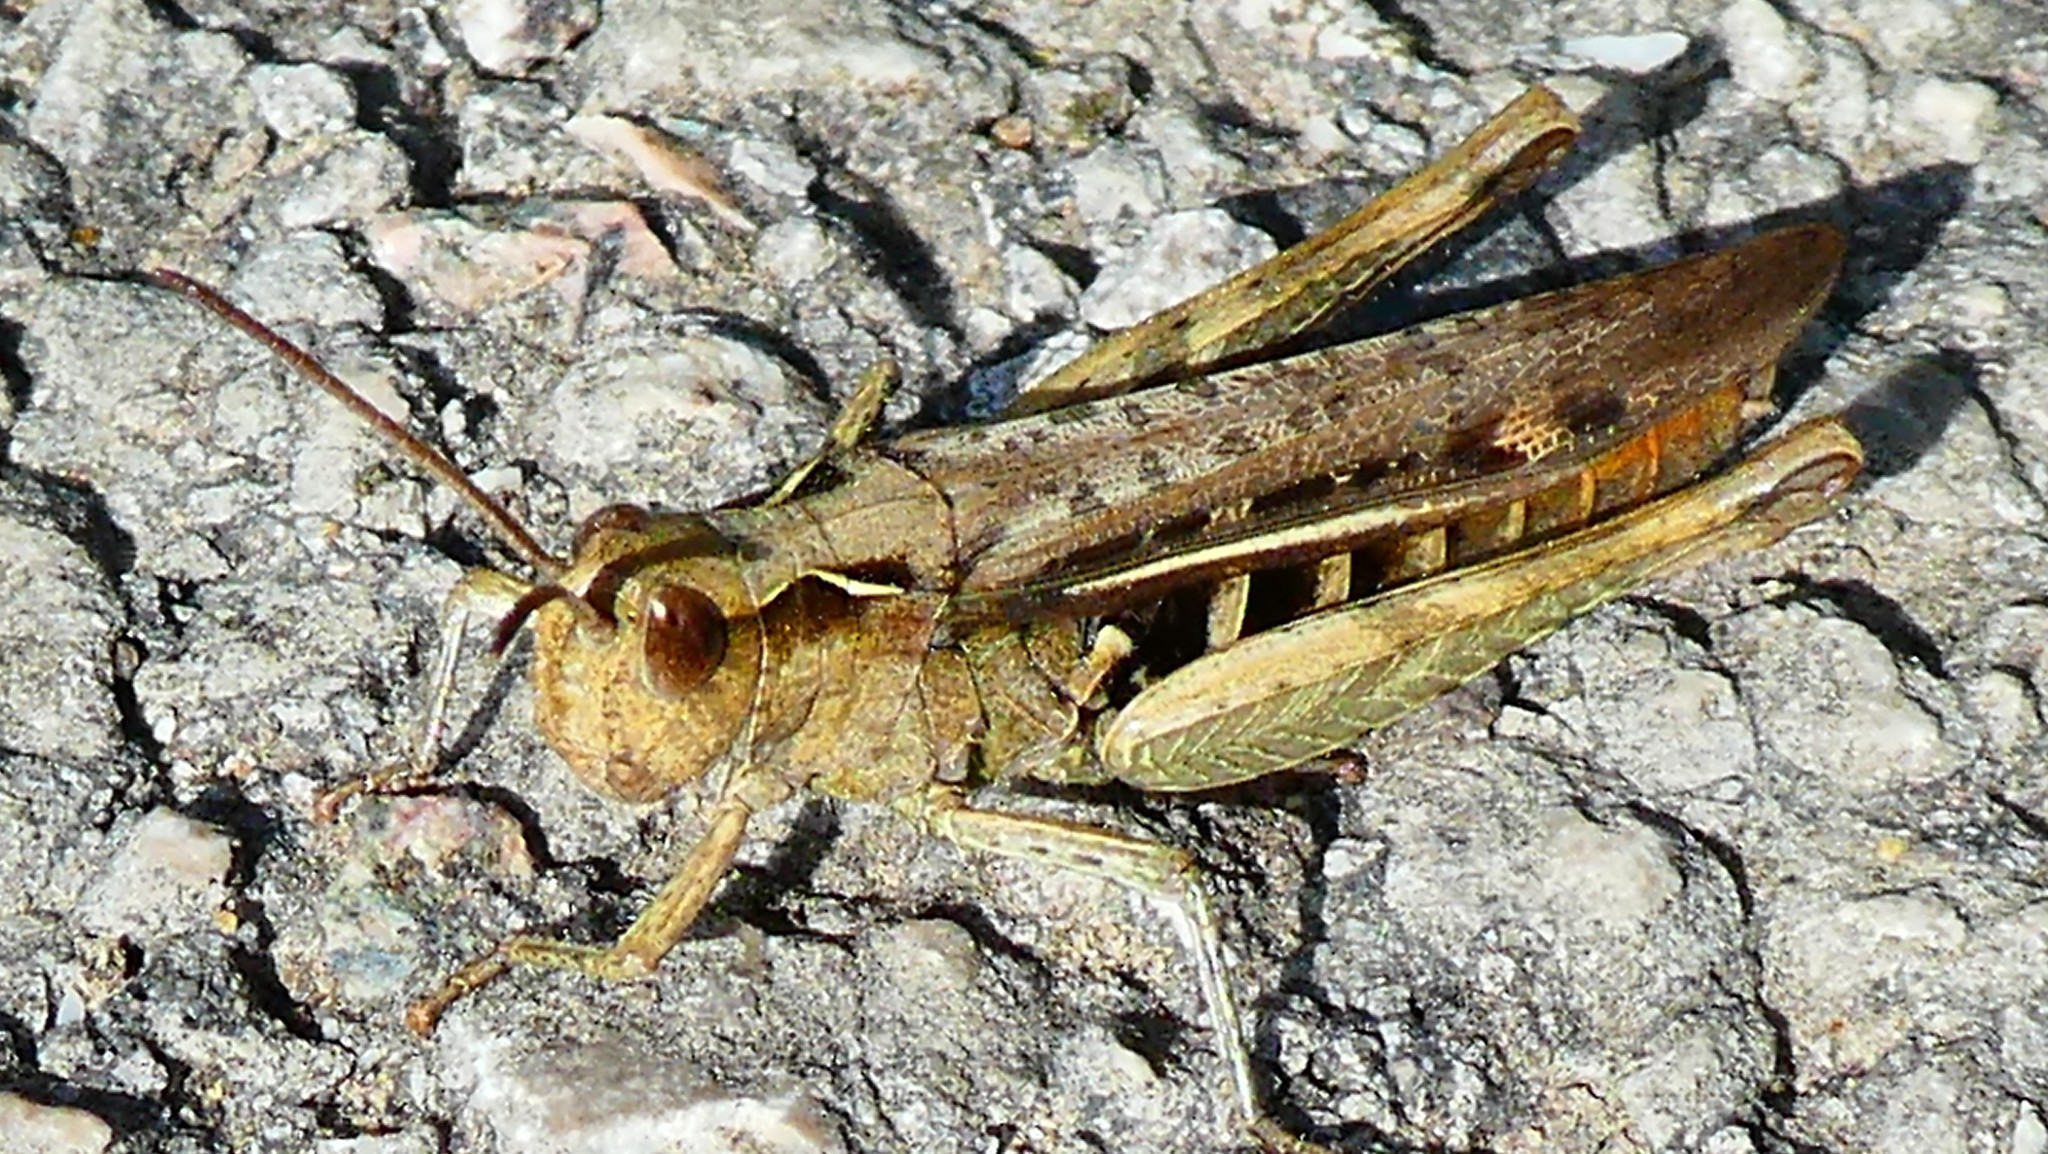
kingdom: Animalia
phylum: Arthropoda
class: Insecta
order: Orthoptera
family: Acrididae
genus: Chorthippus
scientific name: Chorthippus brunneus
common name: Field grasshopper
